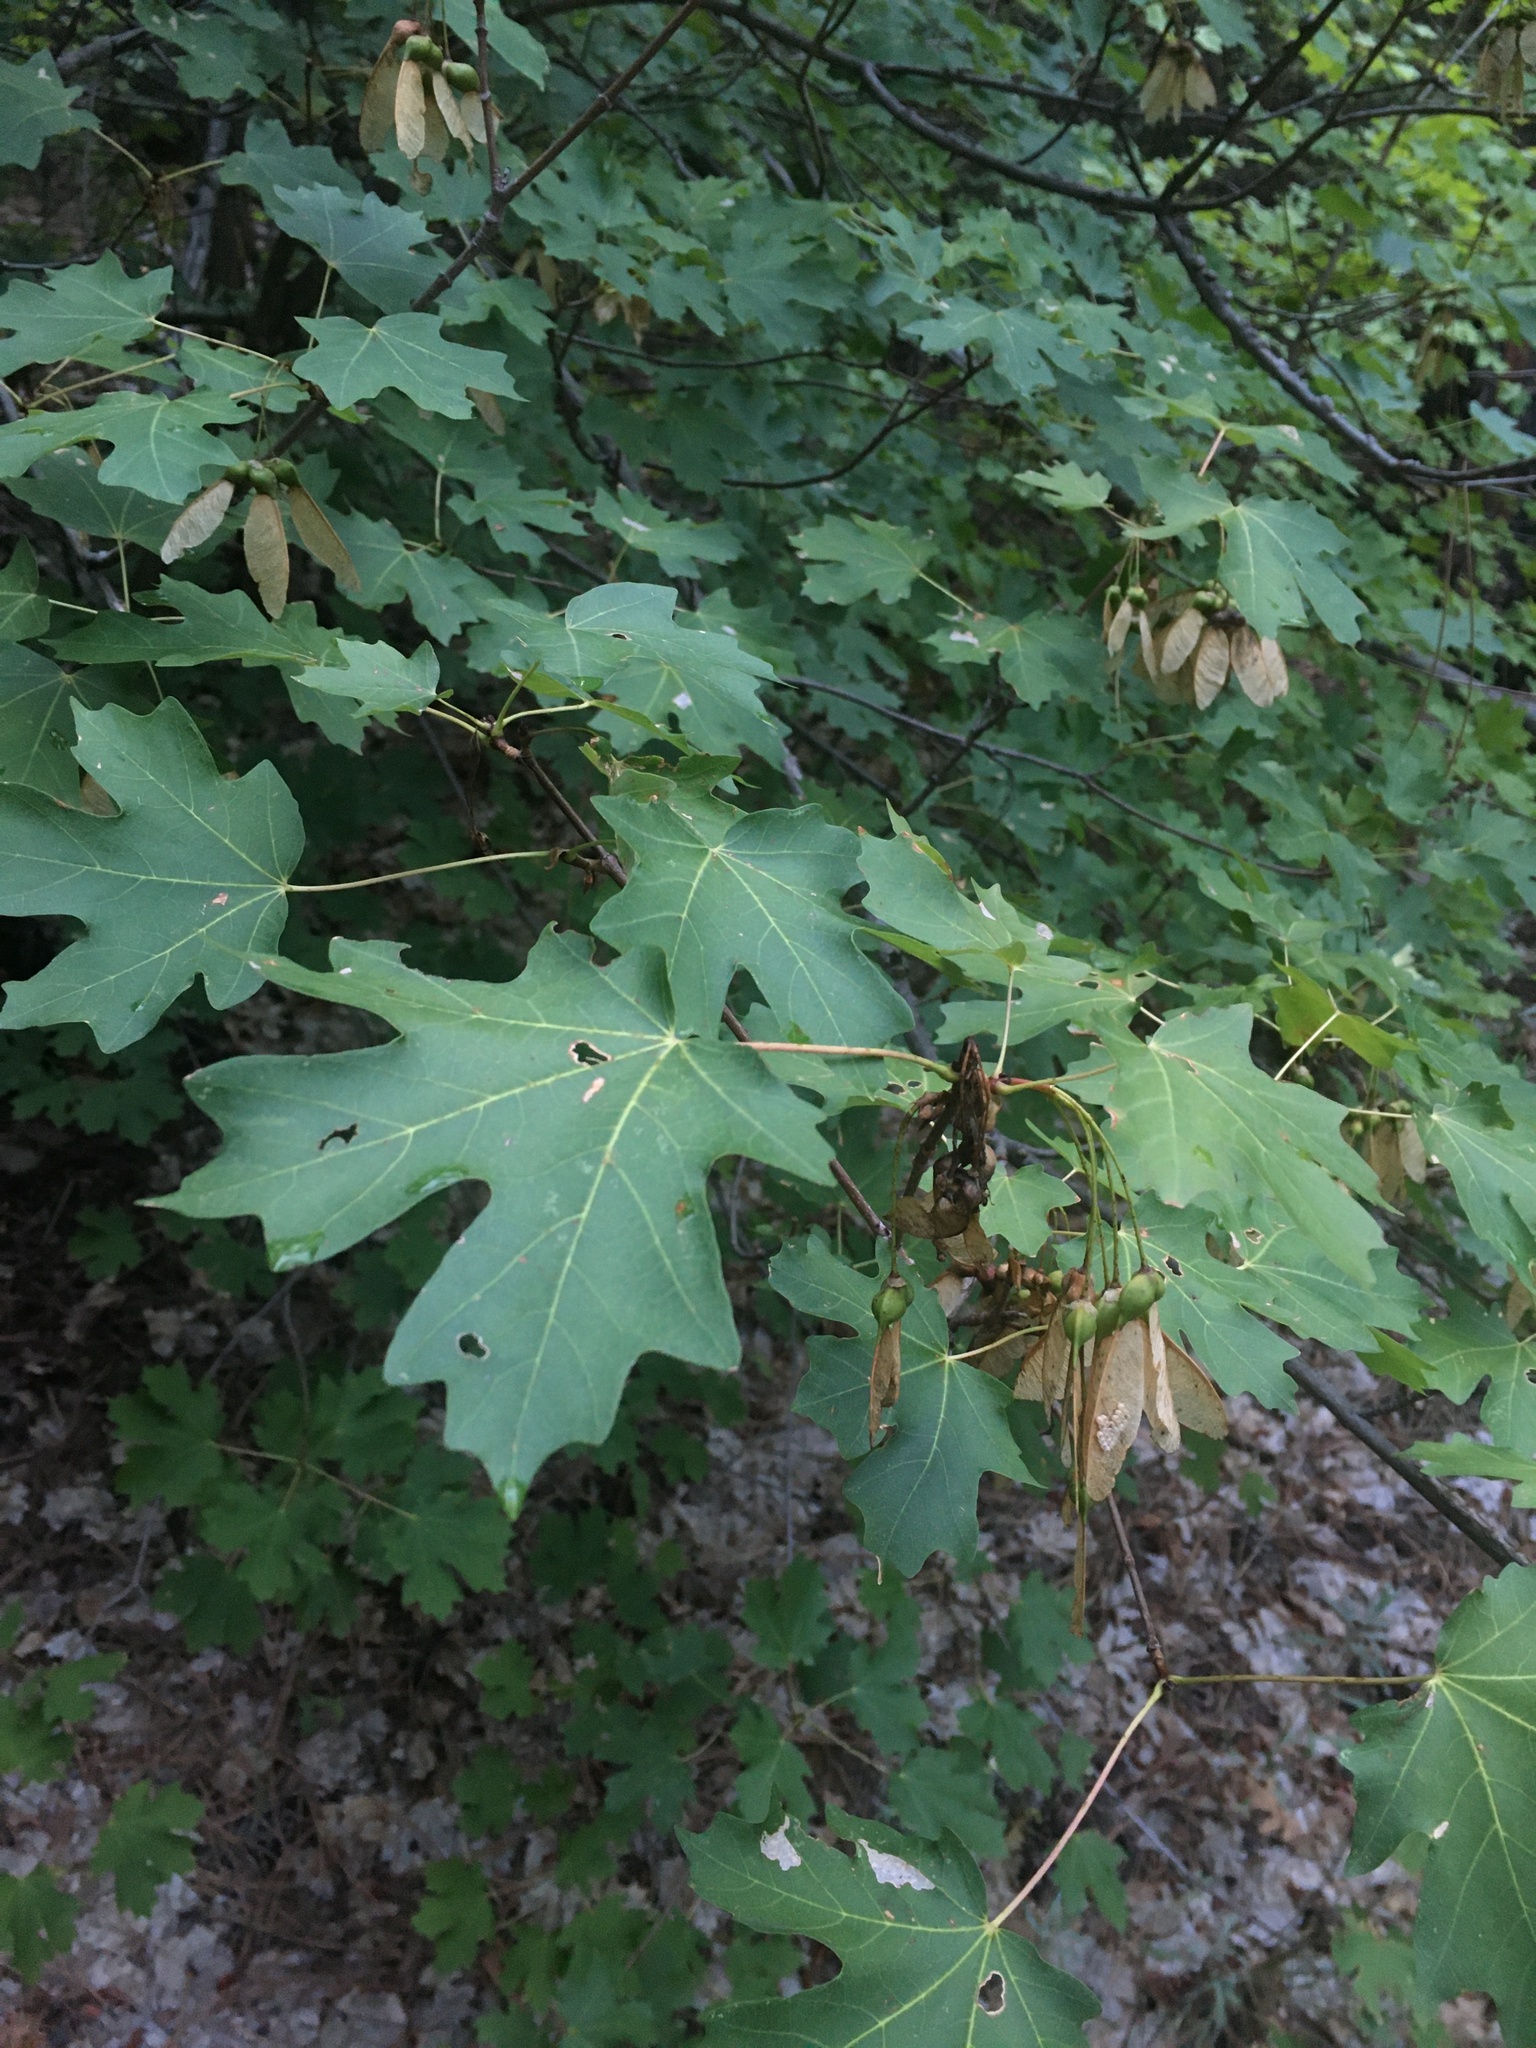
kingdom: Plantae
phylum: Tracheophyta
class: Magnoliopsida
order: Sapindales
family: Sapindaceae
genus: Acer
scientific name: Acer grandidentatum
